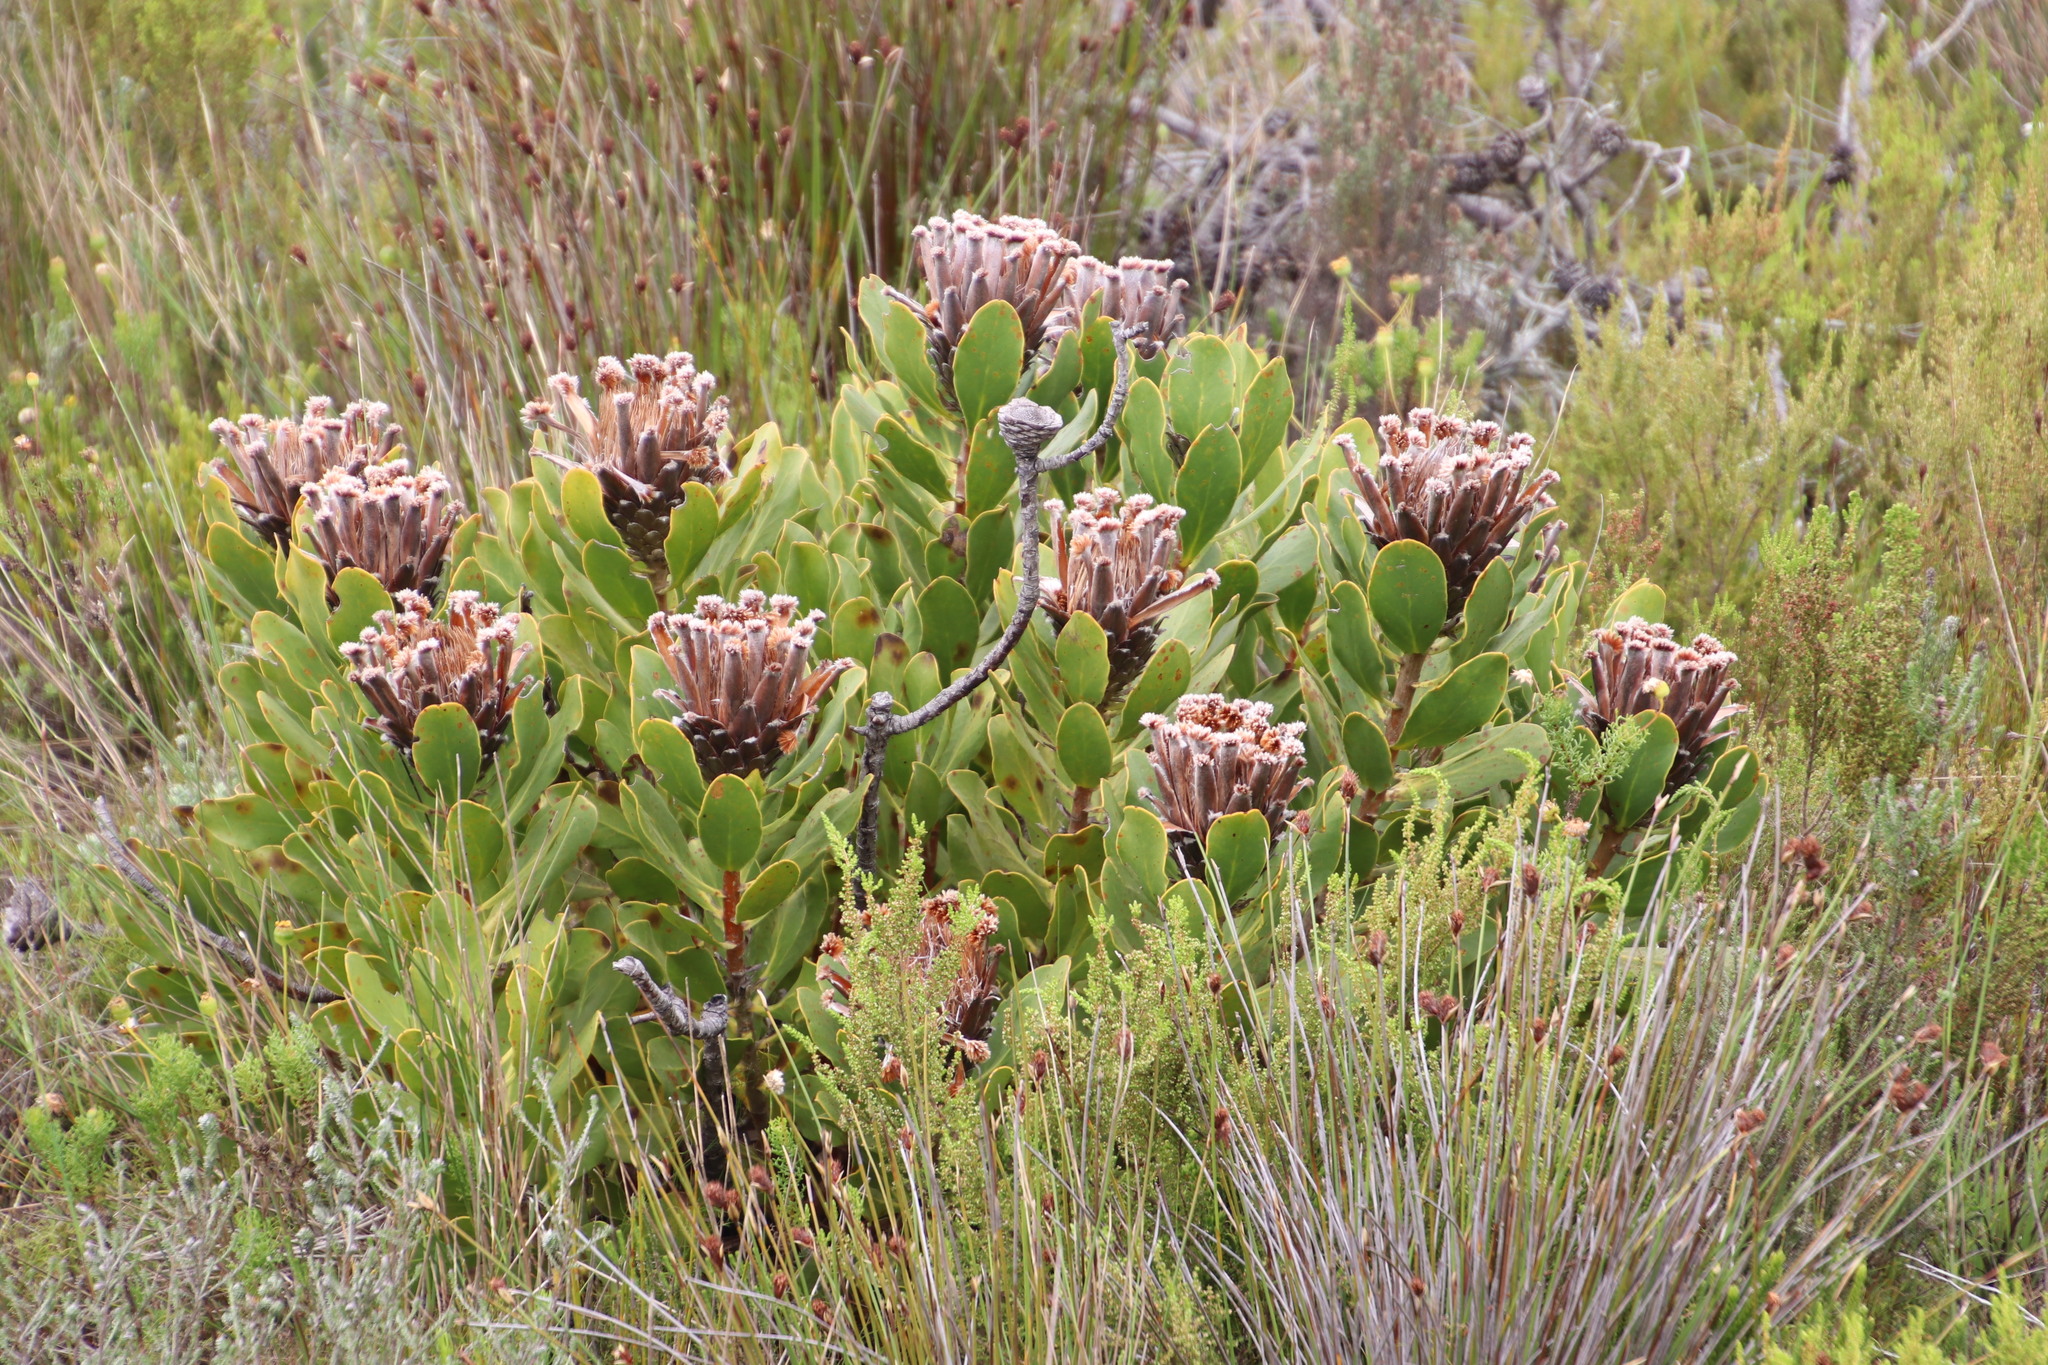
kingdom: Plantae
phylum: Tracheophyta
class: Magnoliopsida
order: Proteales
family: Proteaceae
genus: Protea
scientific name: Protea speciosa
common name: Brown-beard sugarbush
